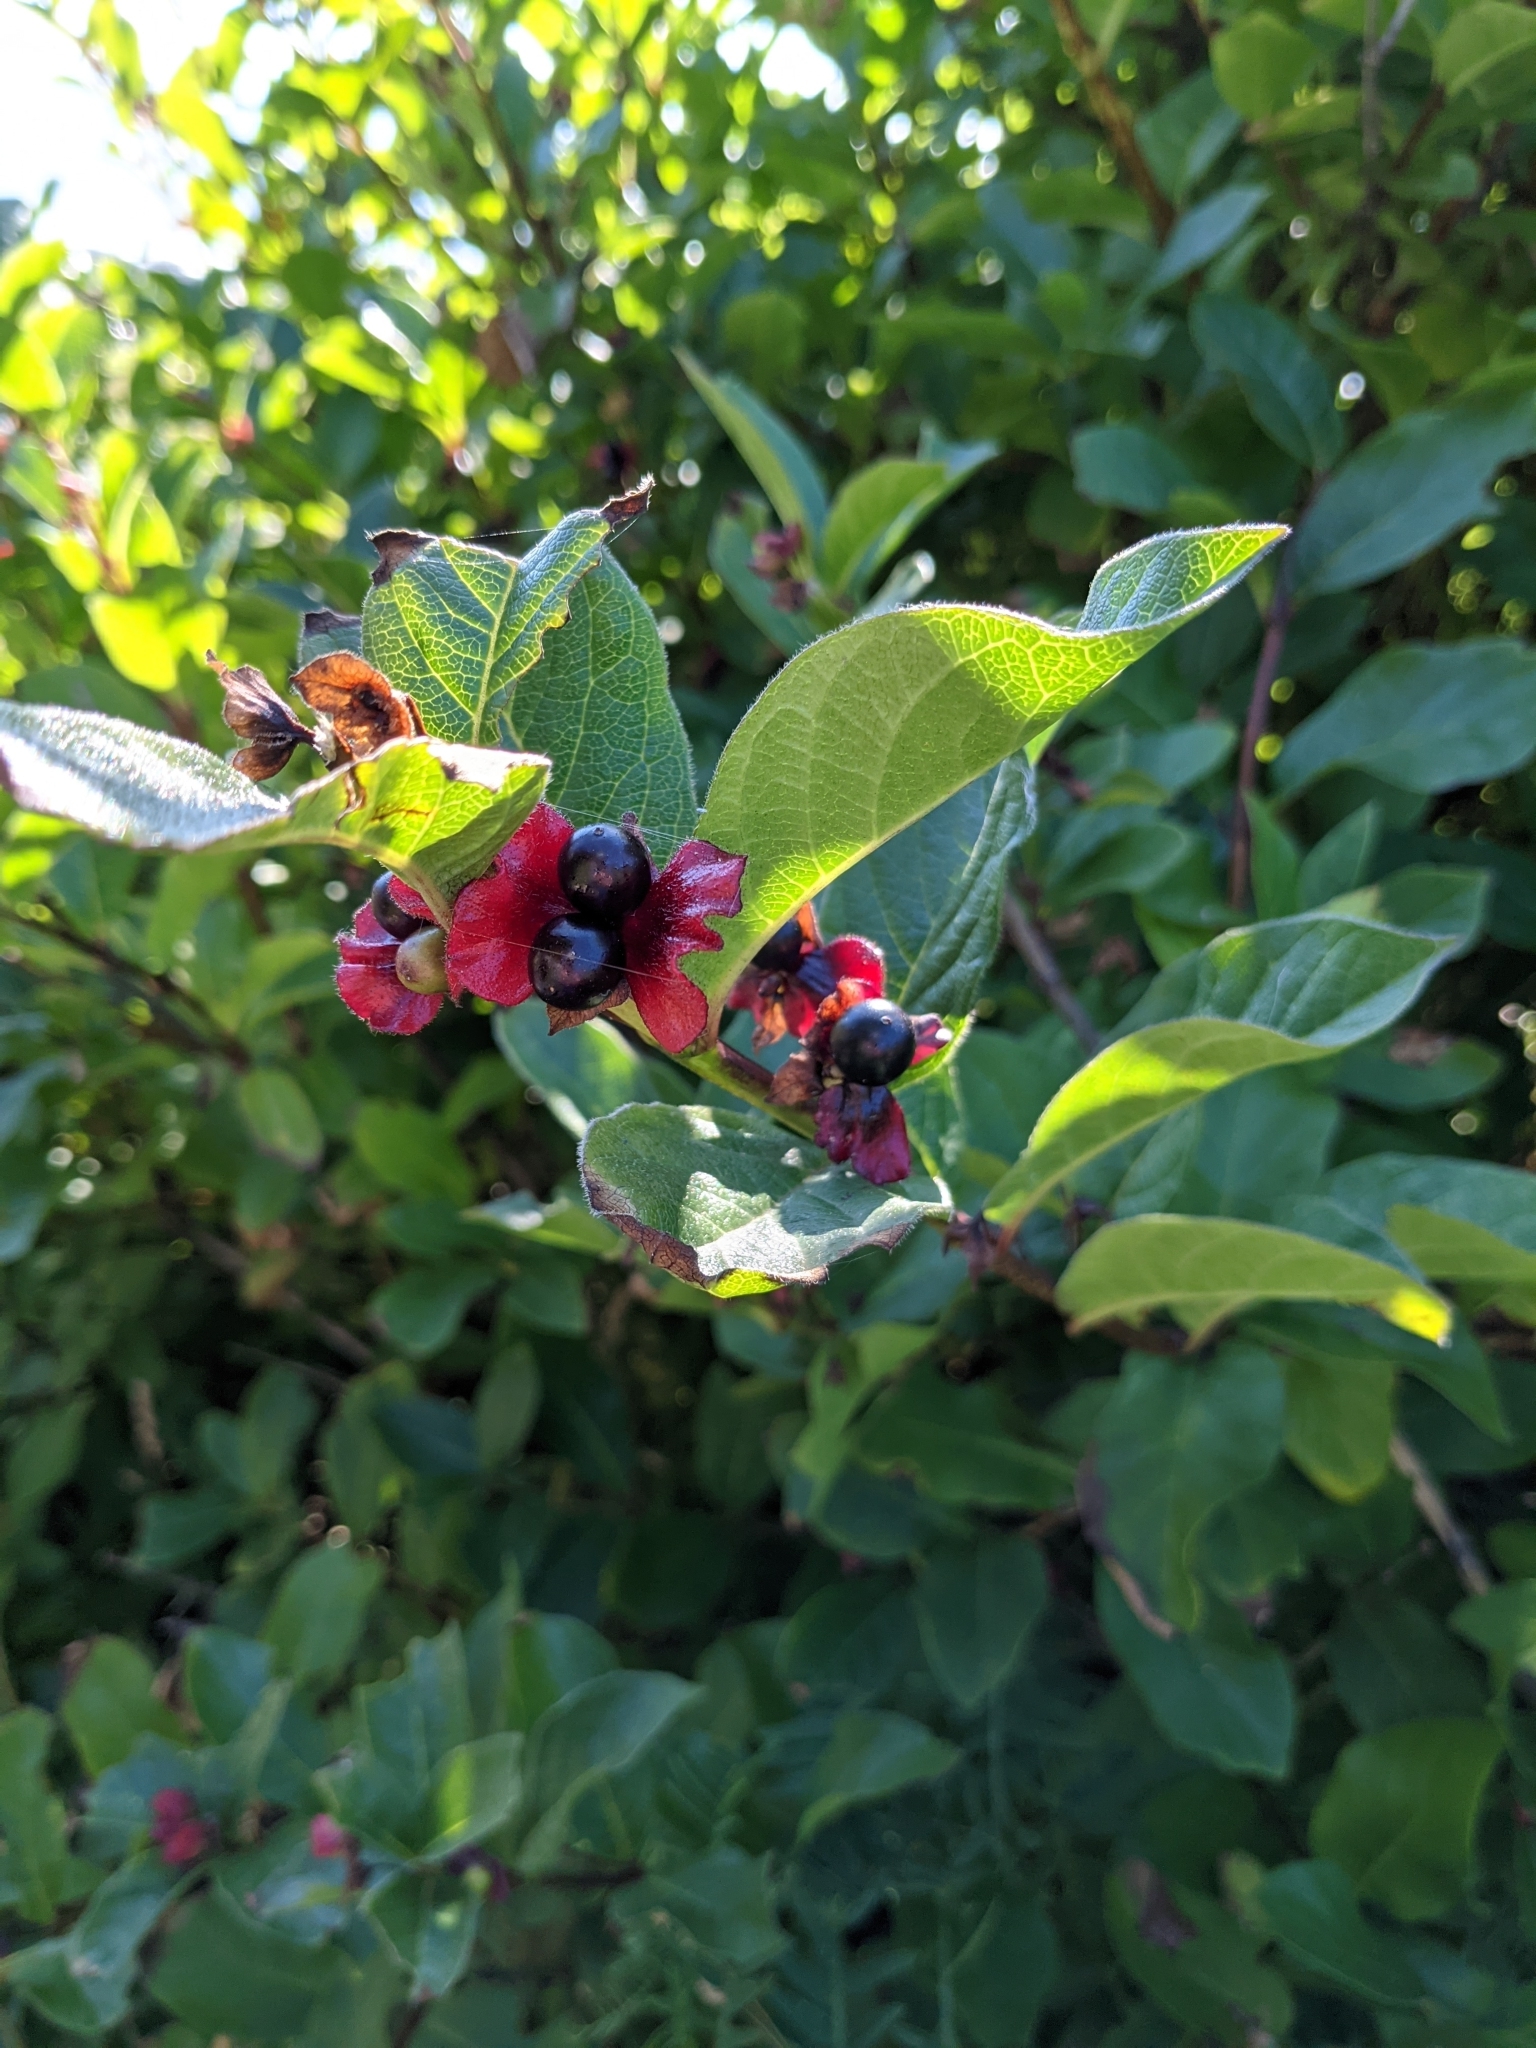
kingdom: Plantae
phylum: Tracheophyta
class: Magnoliopsida
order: Dipsacales
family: Caprifoliaceae
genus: Lonicera
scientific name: Lonicera involucrata
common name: Californian honeysuckle
